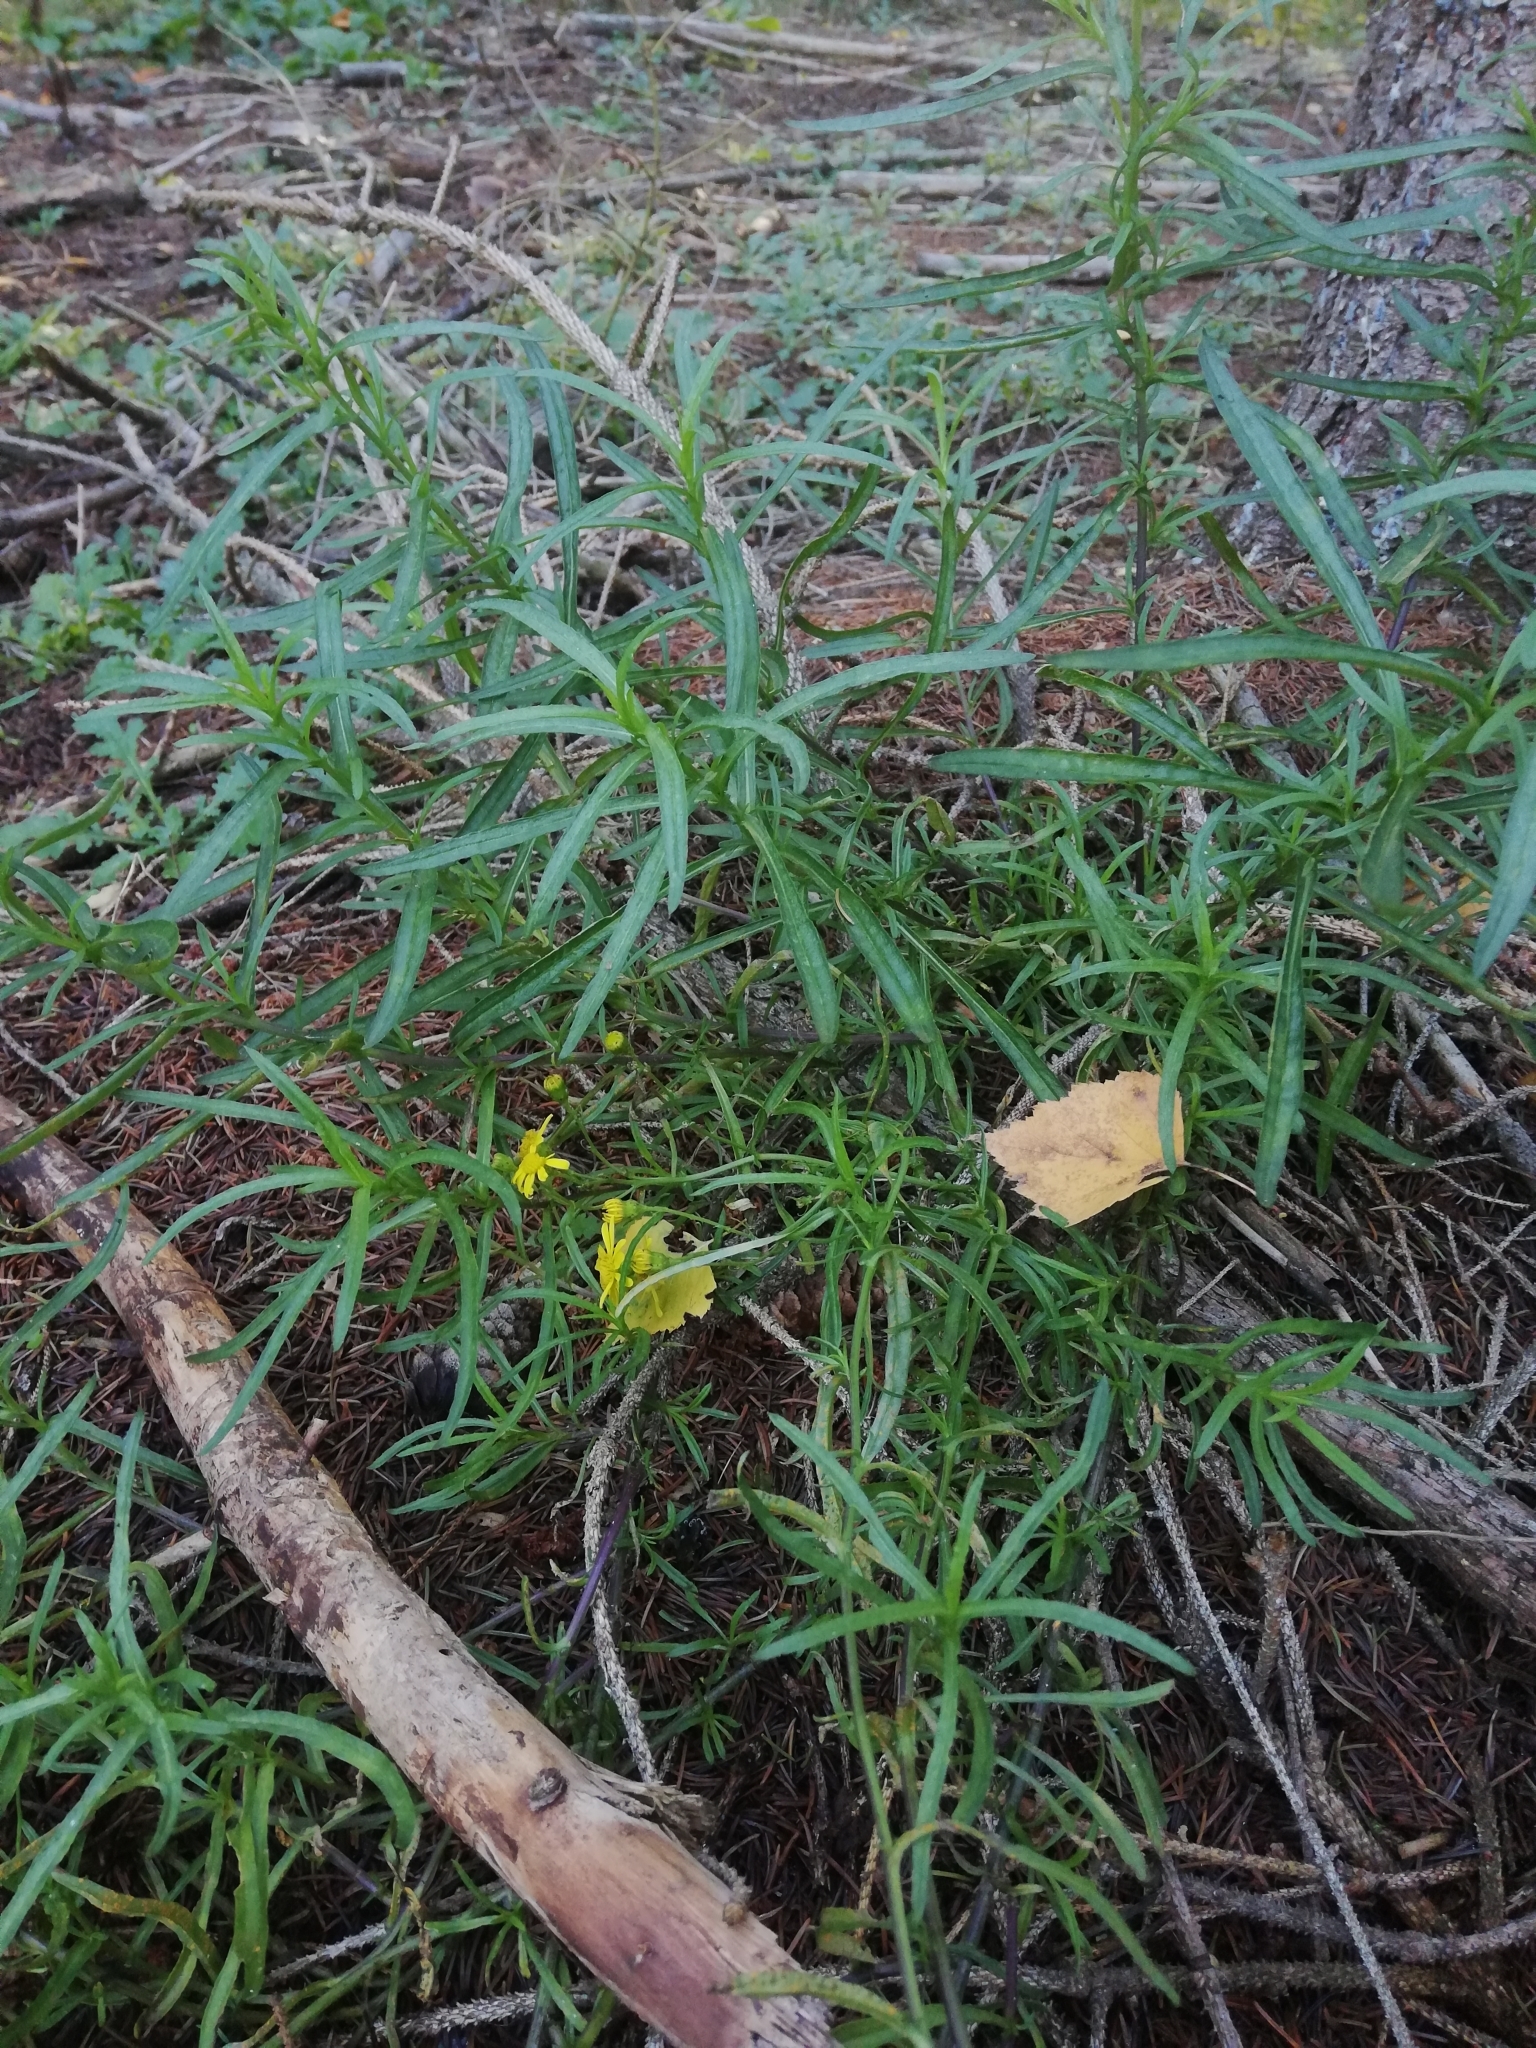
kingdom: Plantae
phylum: Tracheophyta
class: Magnoliopsida
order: Asterales
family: Asteraceae
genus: Senecio
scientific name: Senecio inaequidens
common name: Narrow-leaved ragwort
